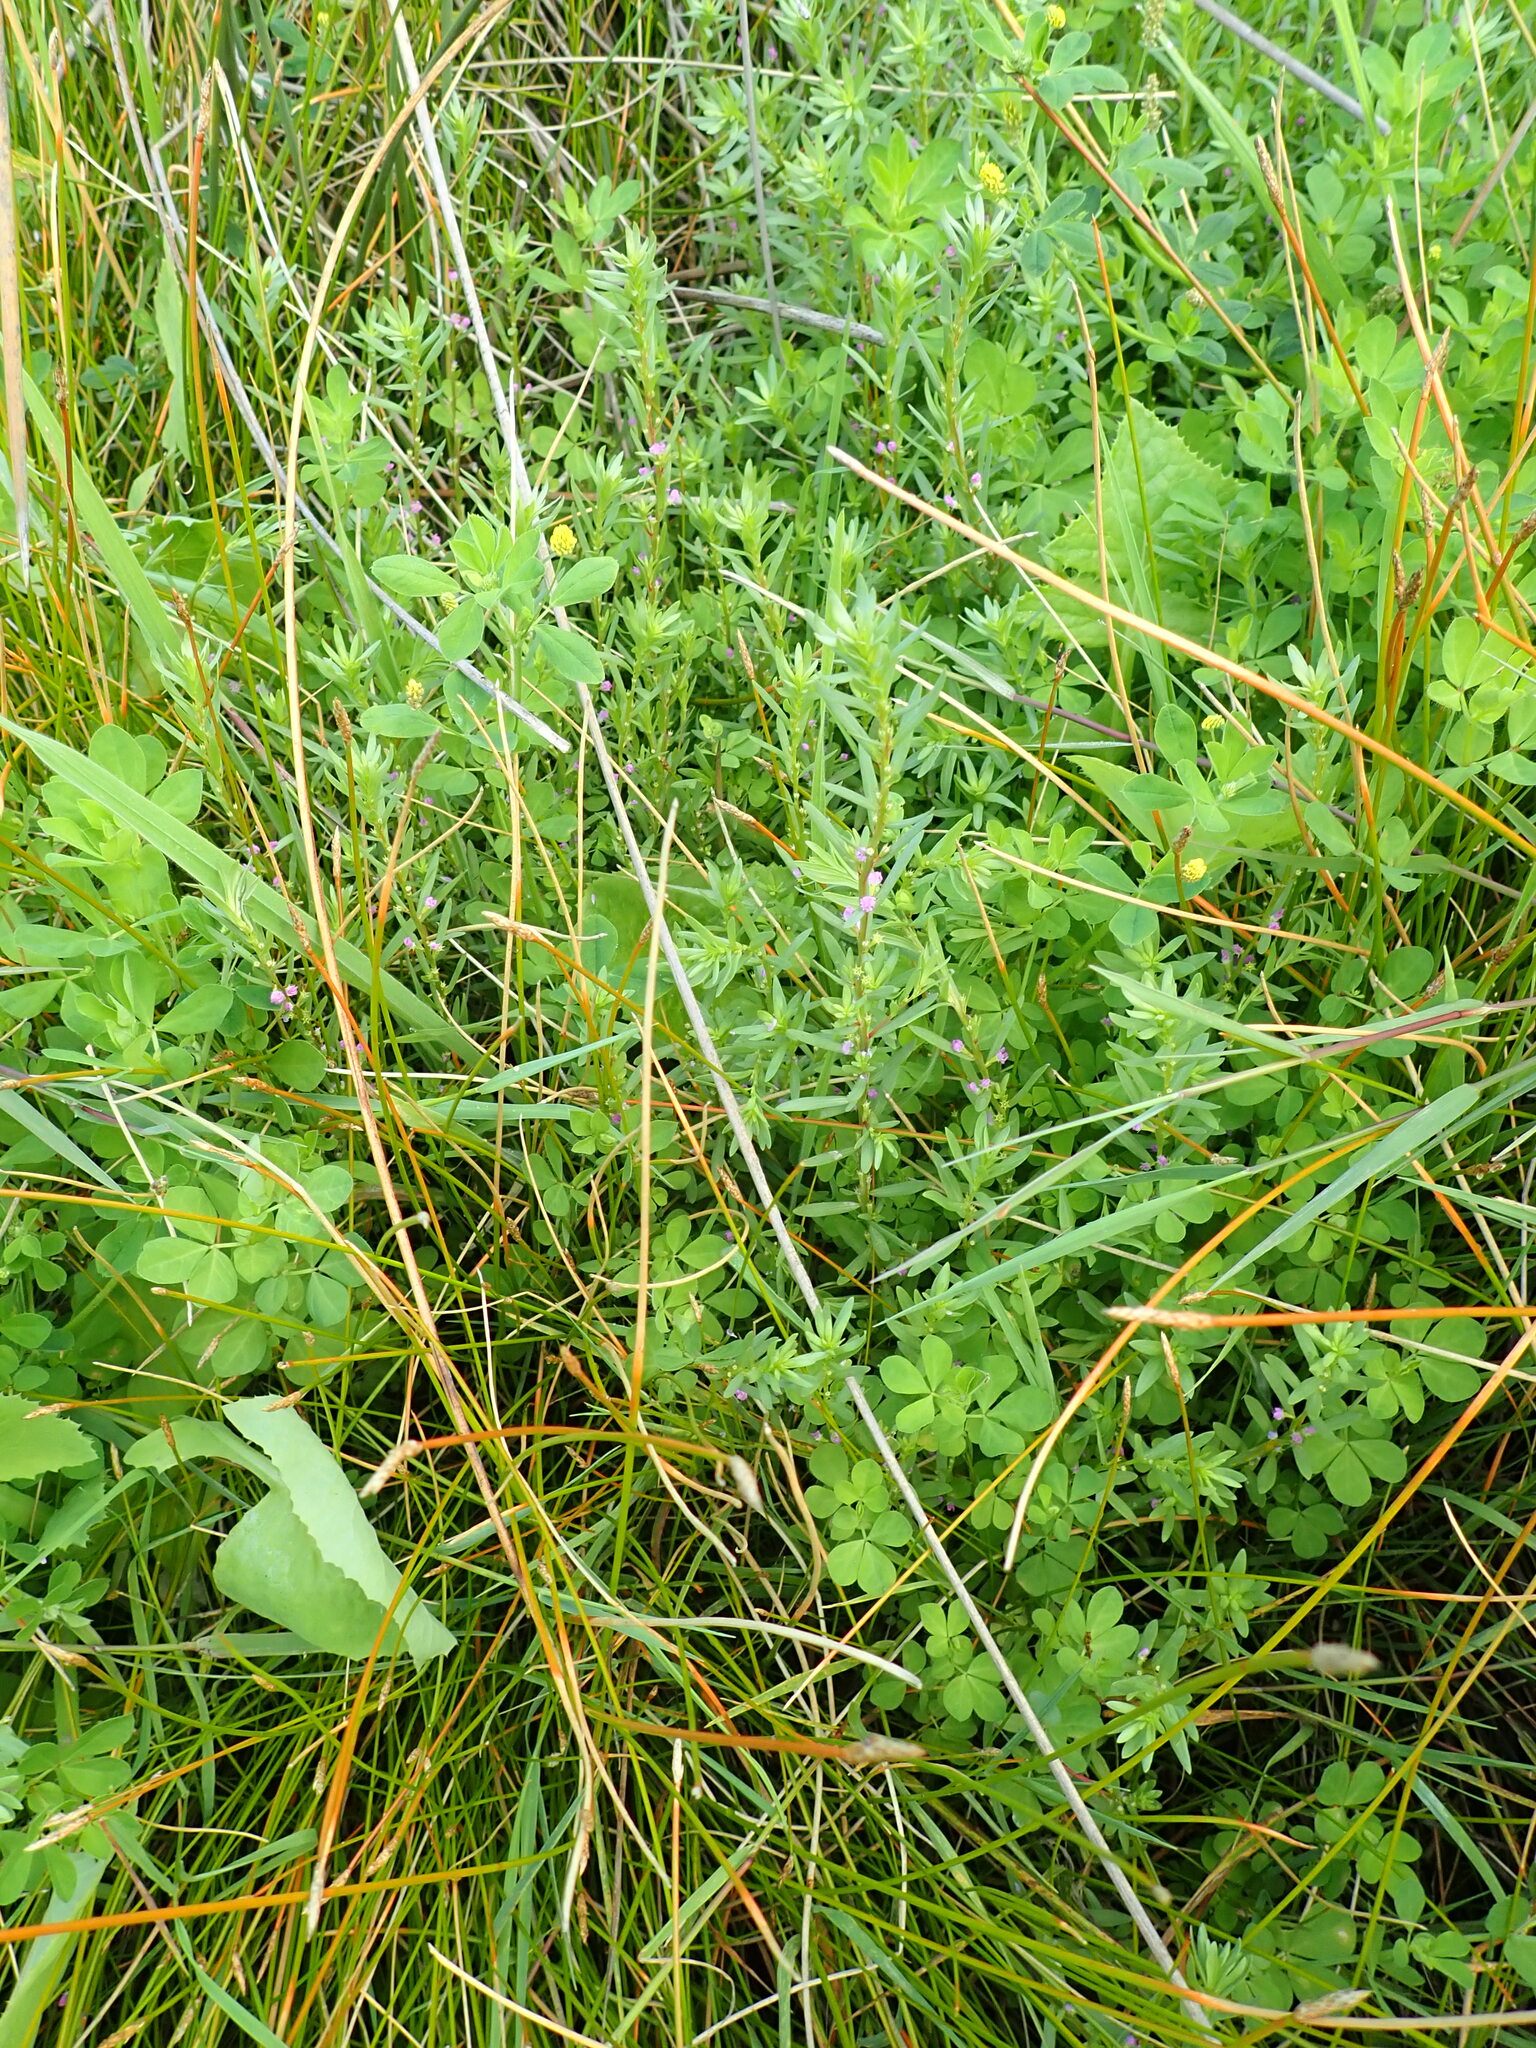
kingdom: Plantae
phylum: Tracheophyta
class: Magnoliopsida
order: Myrtales
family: Lythraceae
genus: Lythrum
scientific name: Lythrum hyssopifolia
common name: Grass-poly
